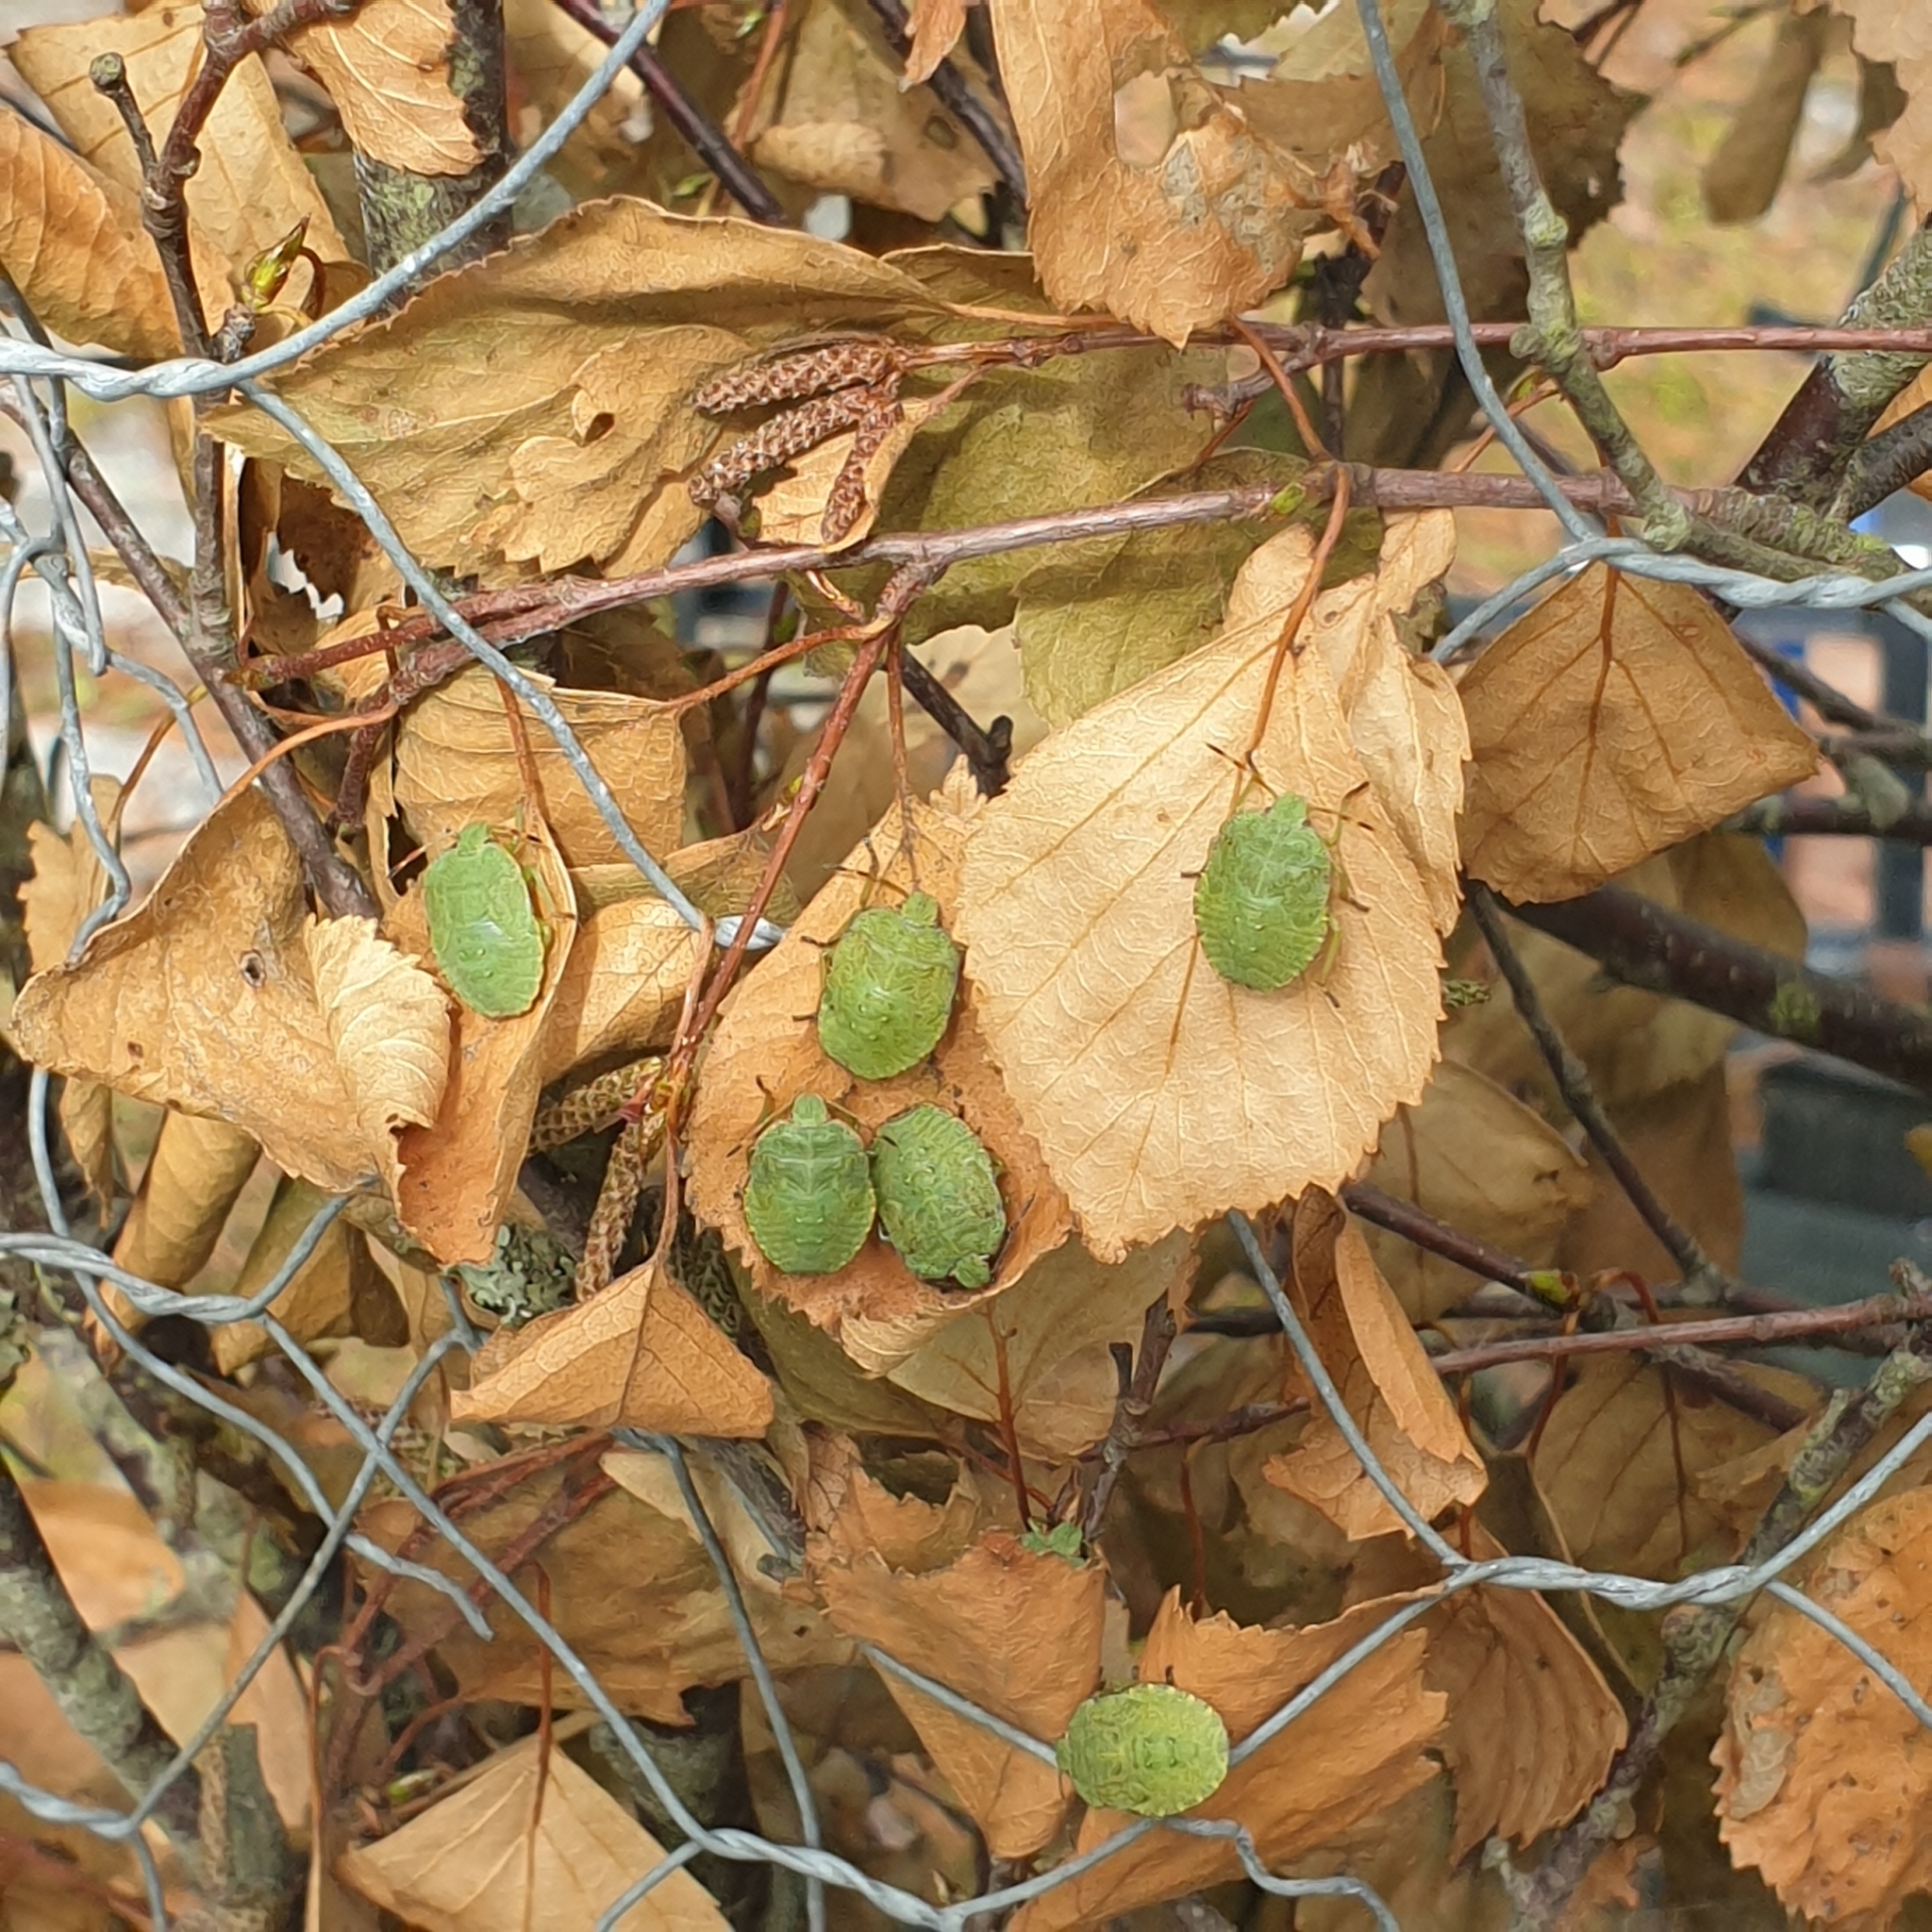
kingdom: Animalia
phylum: Arthropoda
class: Insecta
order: Hemiptera
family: Pentatomidae
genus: Palomena
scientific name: Palomena prasina
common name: Green shieldbug
